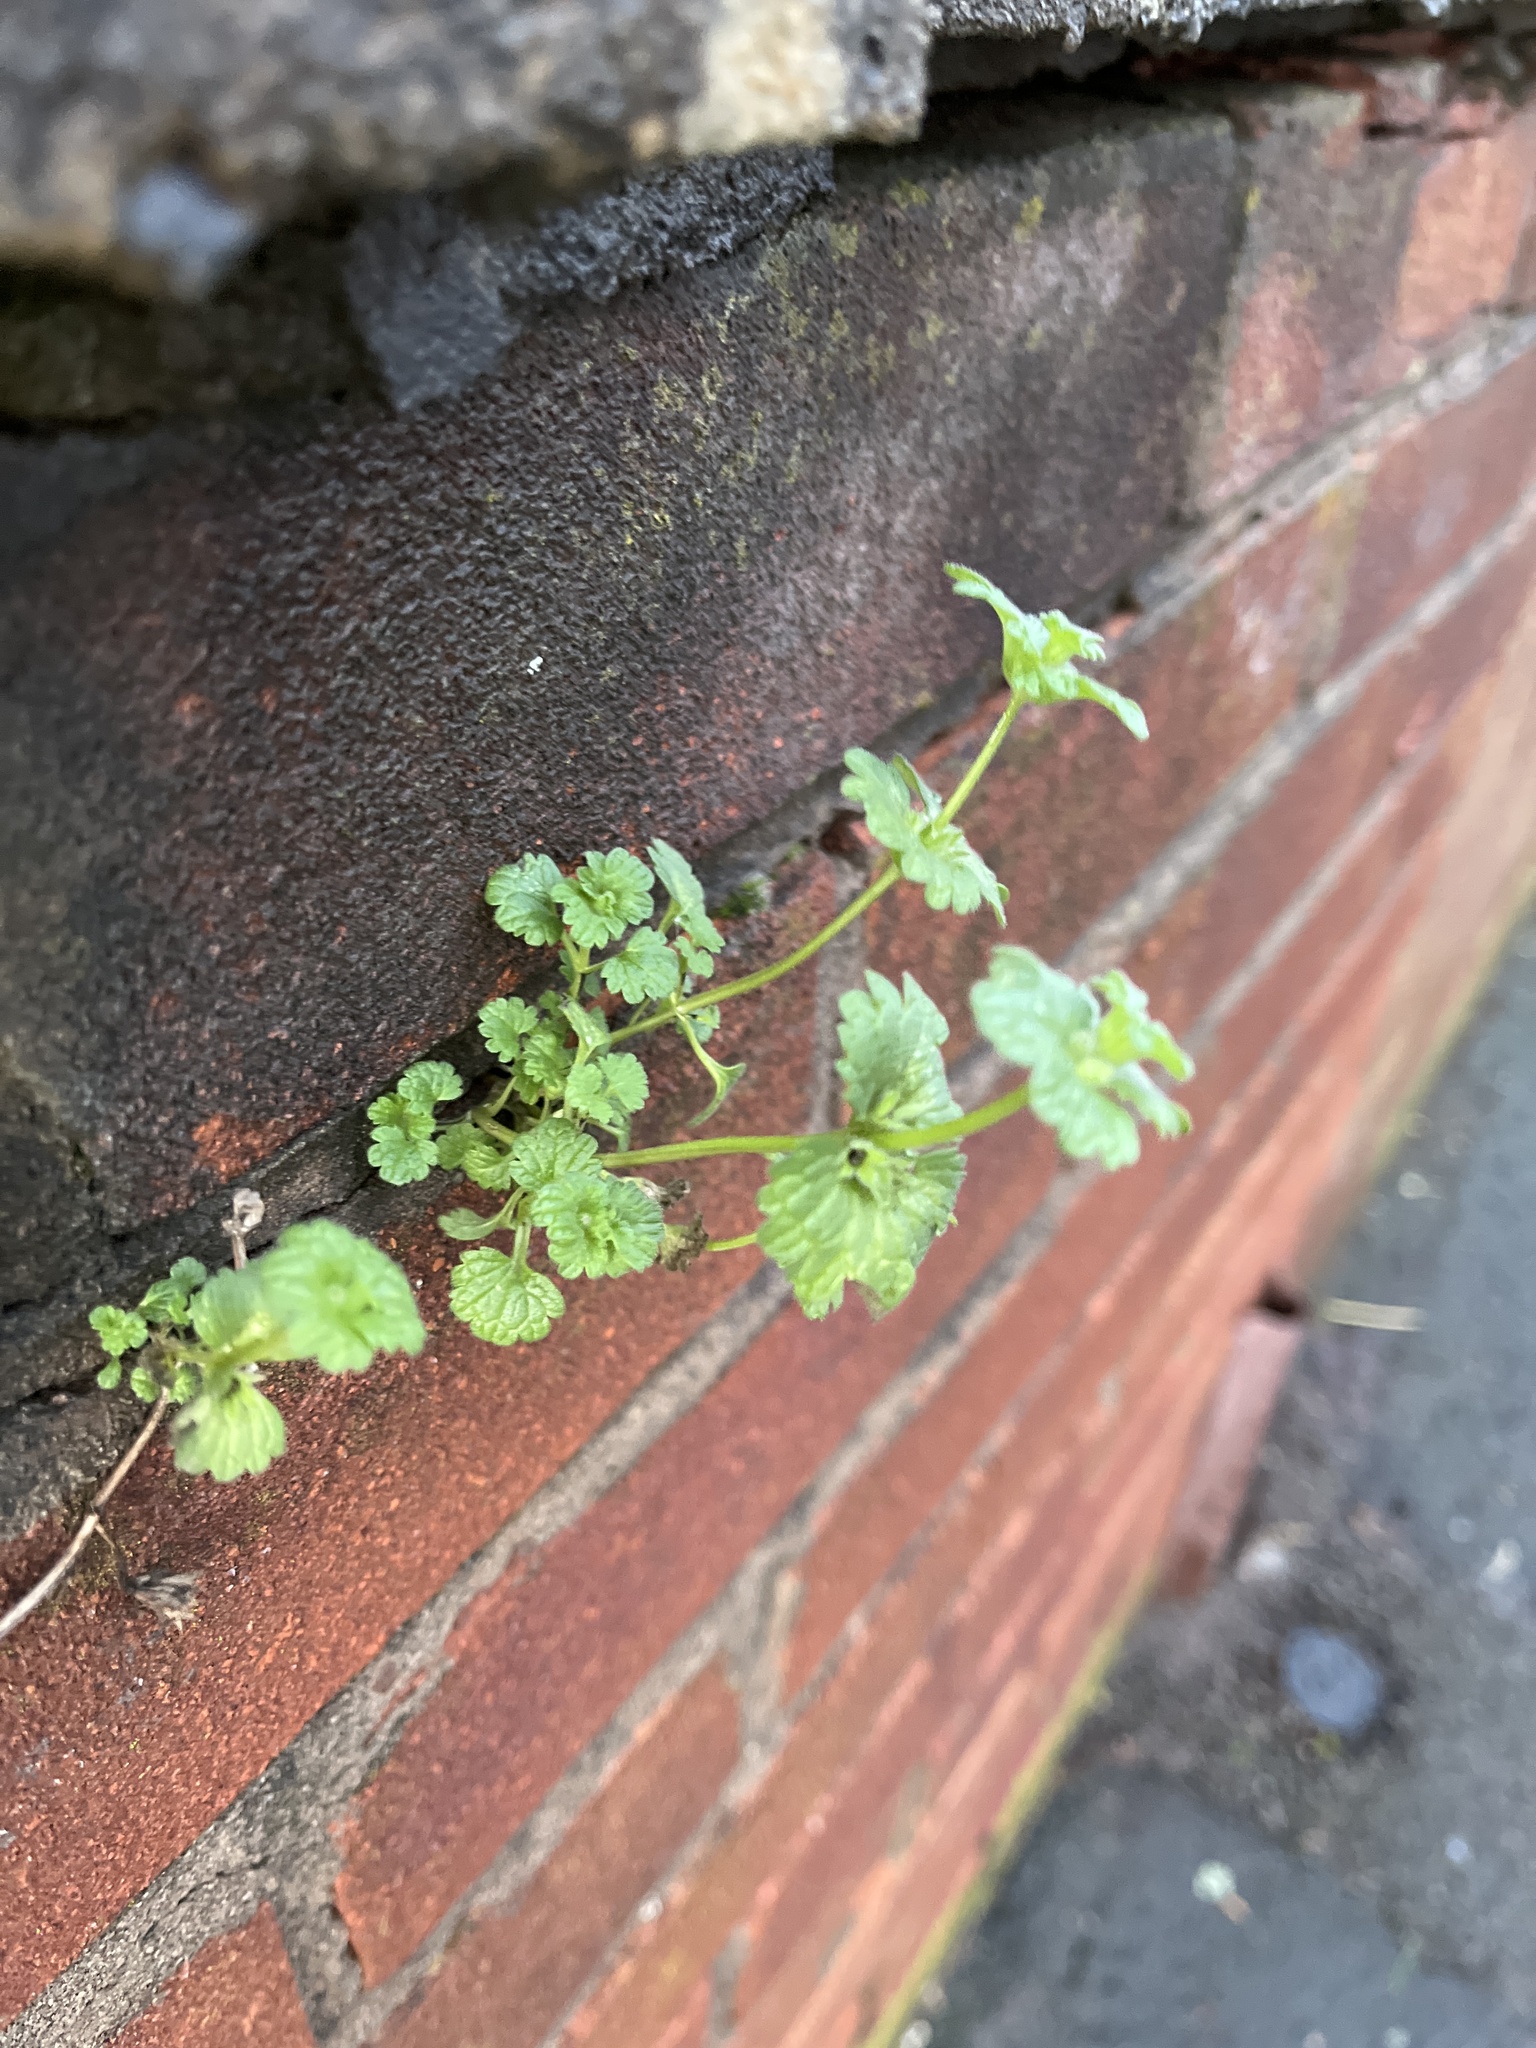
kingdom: Plantae
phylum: Tracheophyta
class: Magnoliopsida
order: Lamiales
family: Lamiaceae
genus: Lamium
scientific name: Lamium amplexicaule
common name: Henbit dead-nettle
